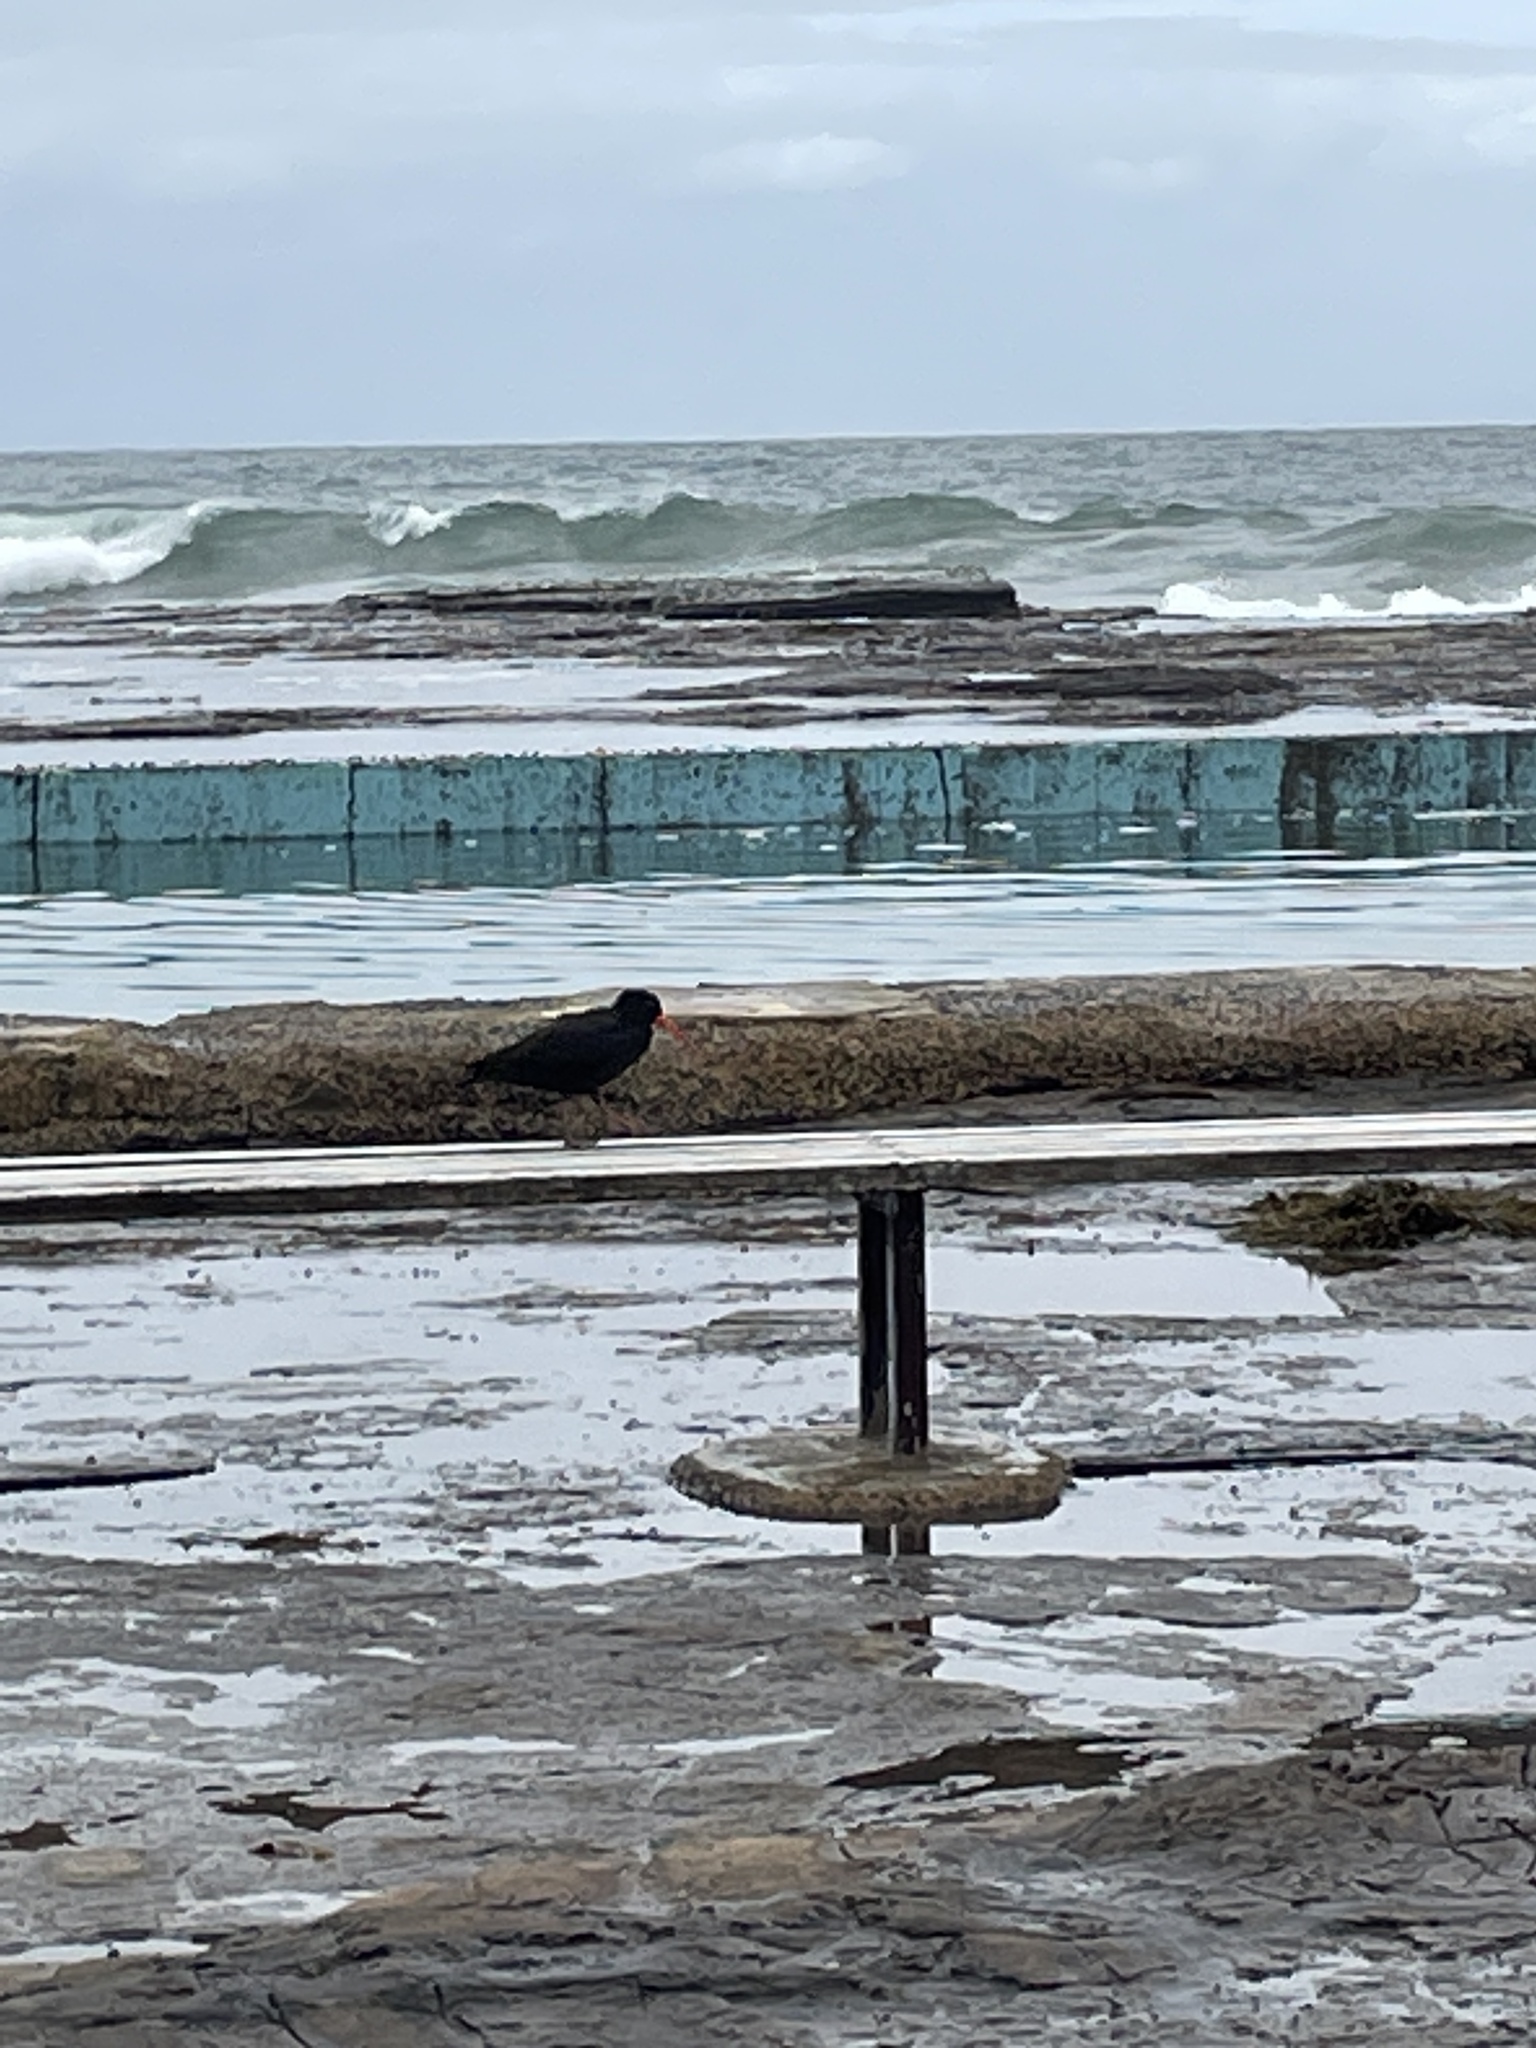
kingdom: Animalia
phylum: Chordata
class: Aves
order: Charadriiformes
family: Haematopodidae
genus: Haematopus
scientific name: Haematopus fuliginosus
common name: Sooty oystercatcher
